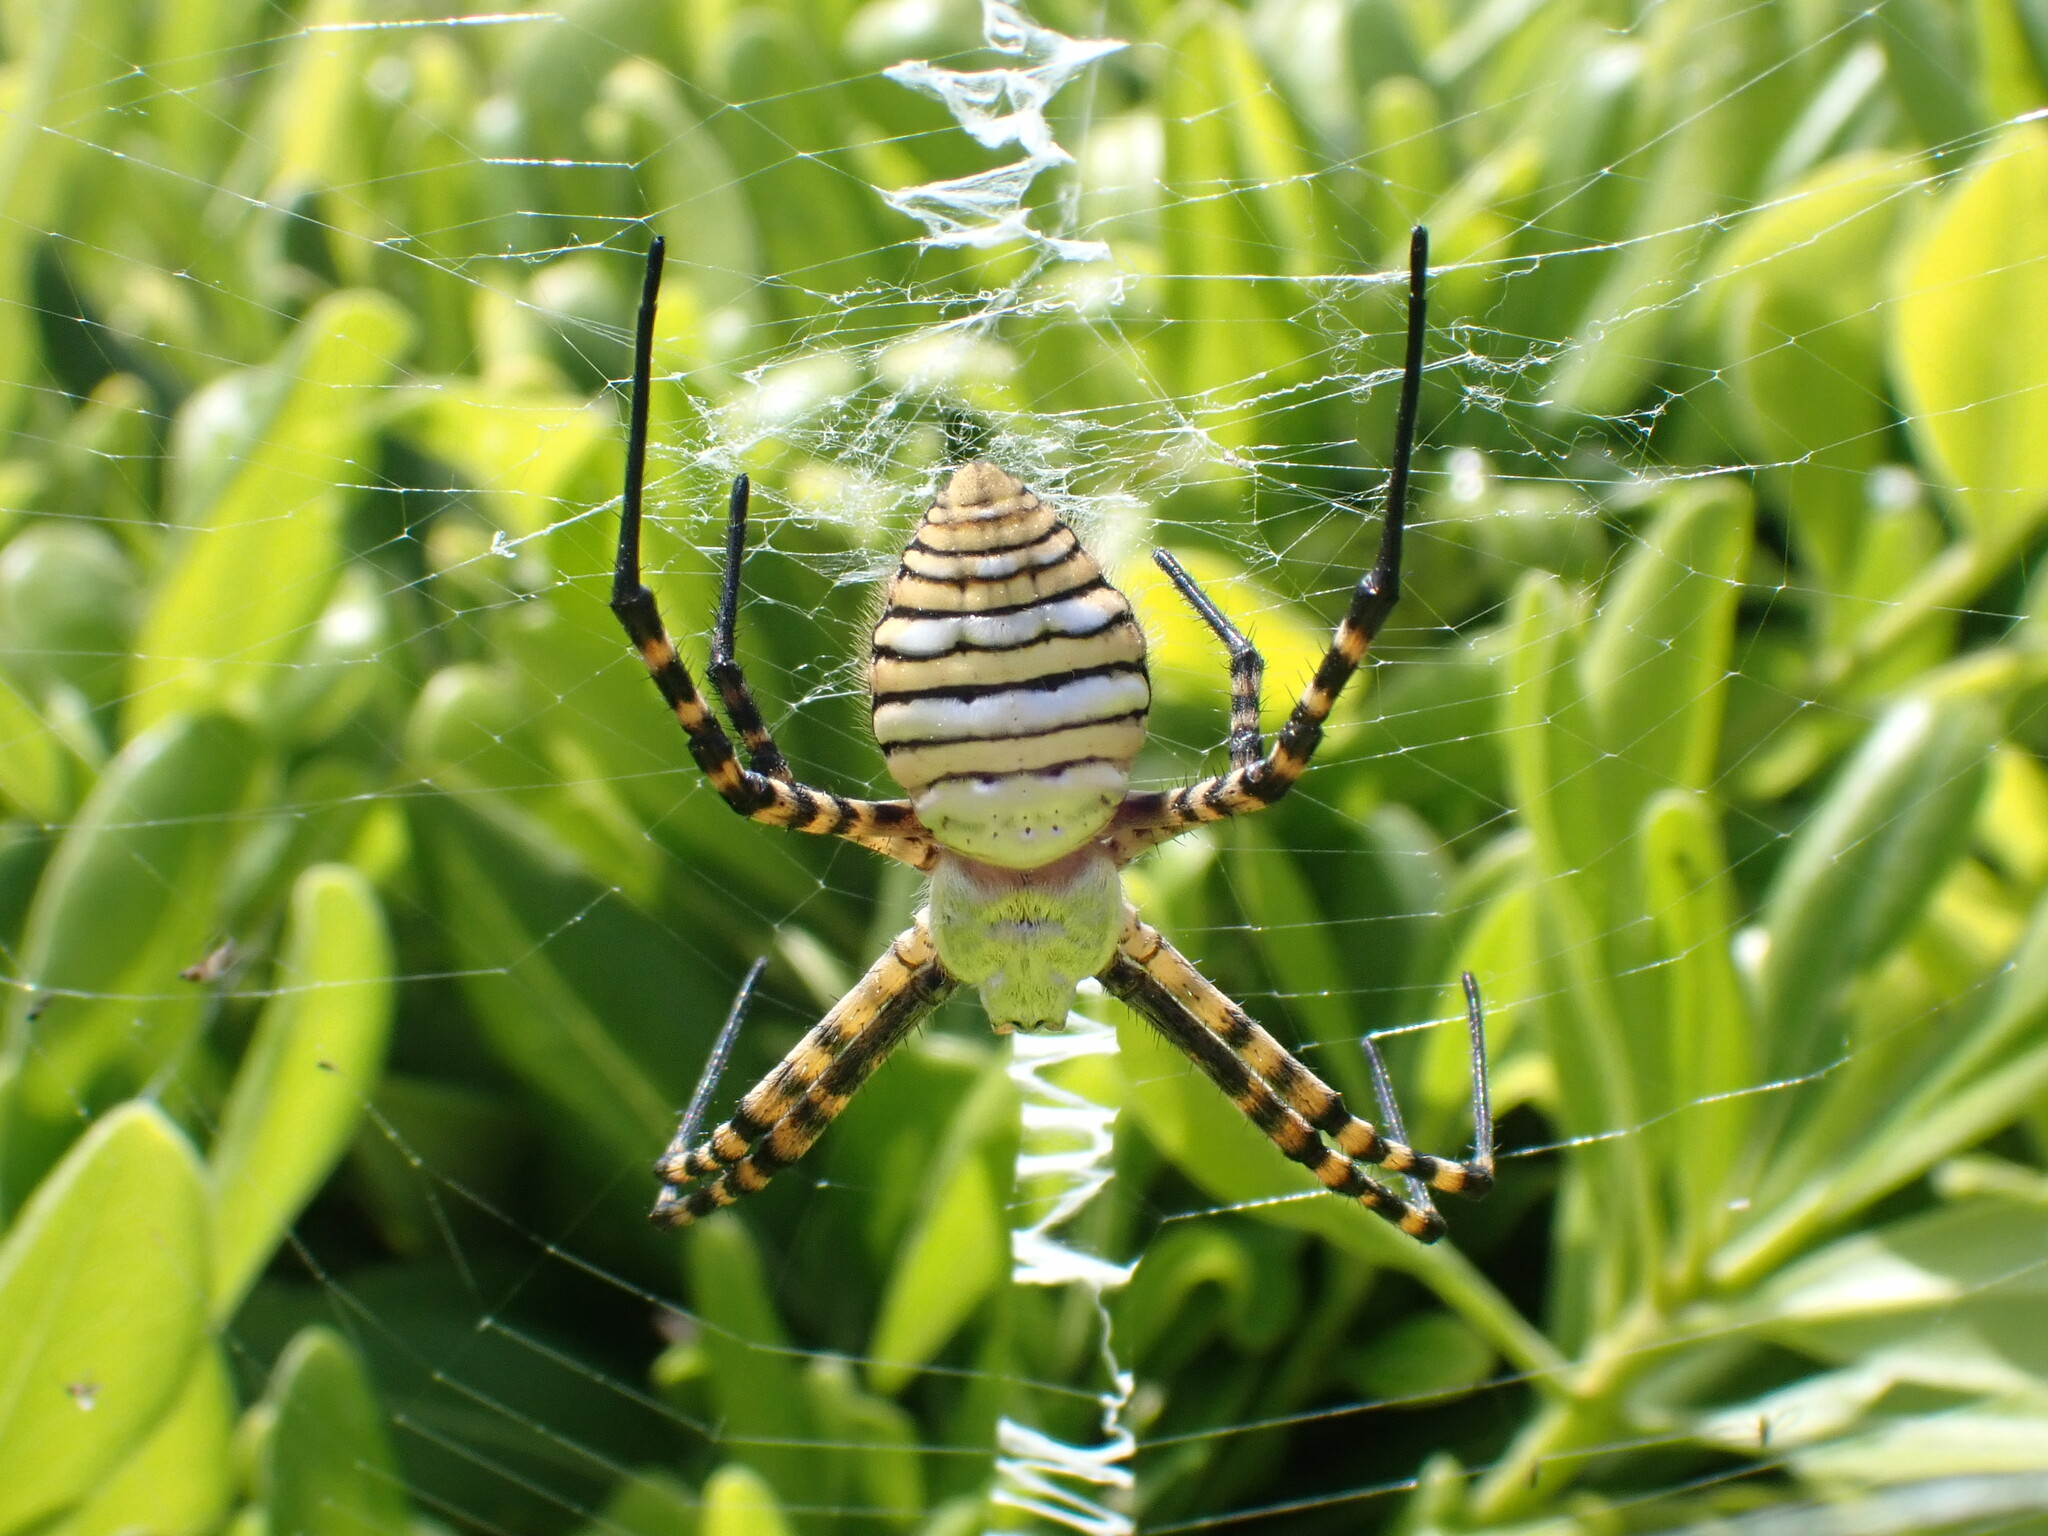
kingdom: Animalia
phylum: Arthropoda
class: Arachnida
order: Araneae
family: Araneidae
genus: Argiope
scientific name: Argiope trifasciata
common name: Banded garden spider
